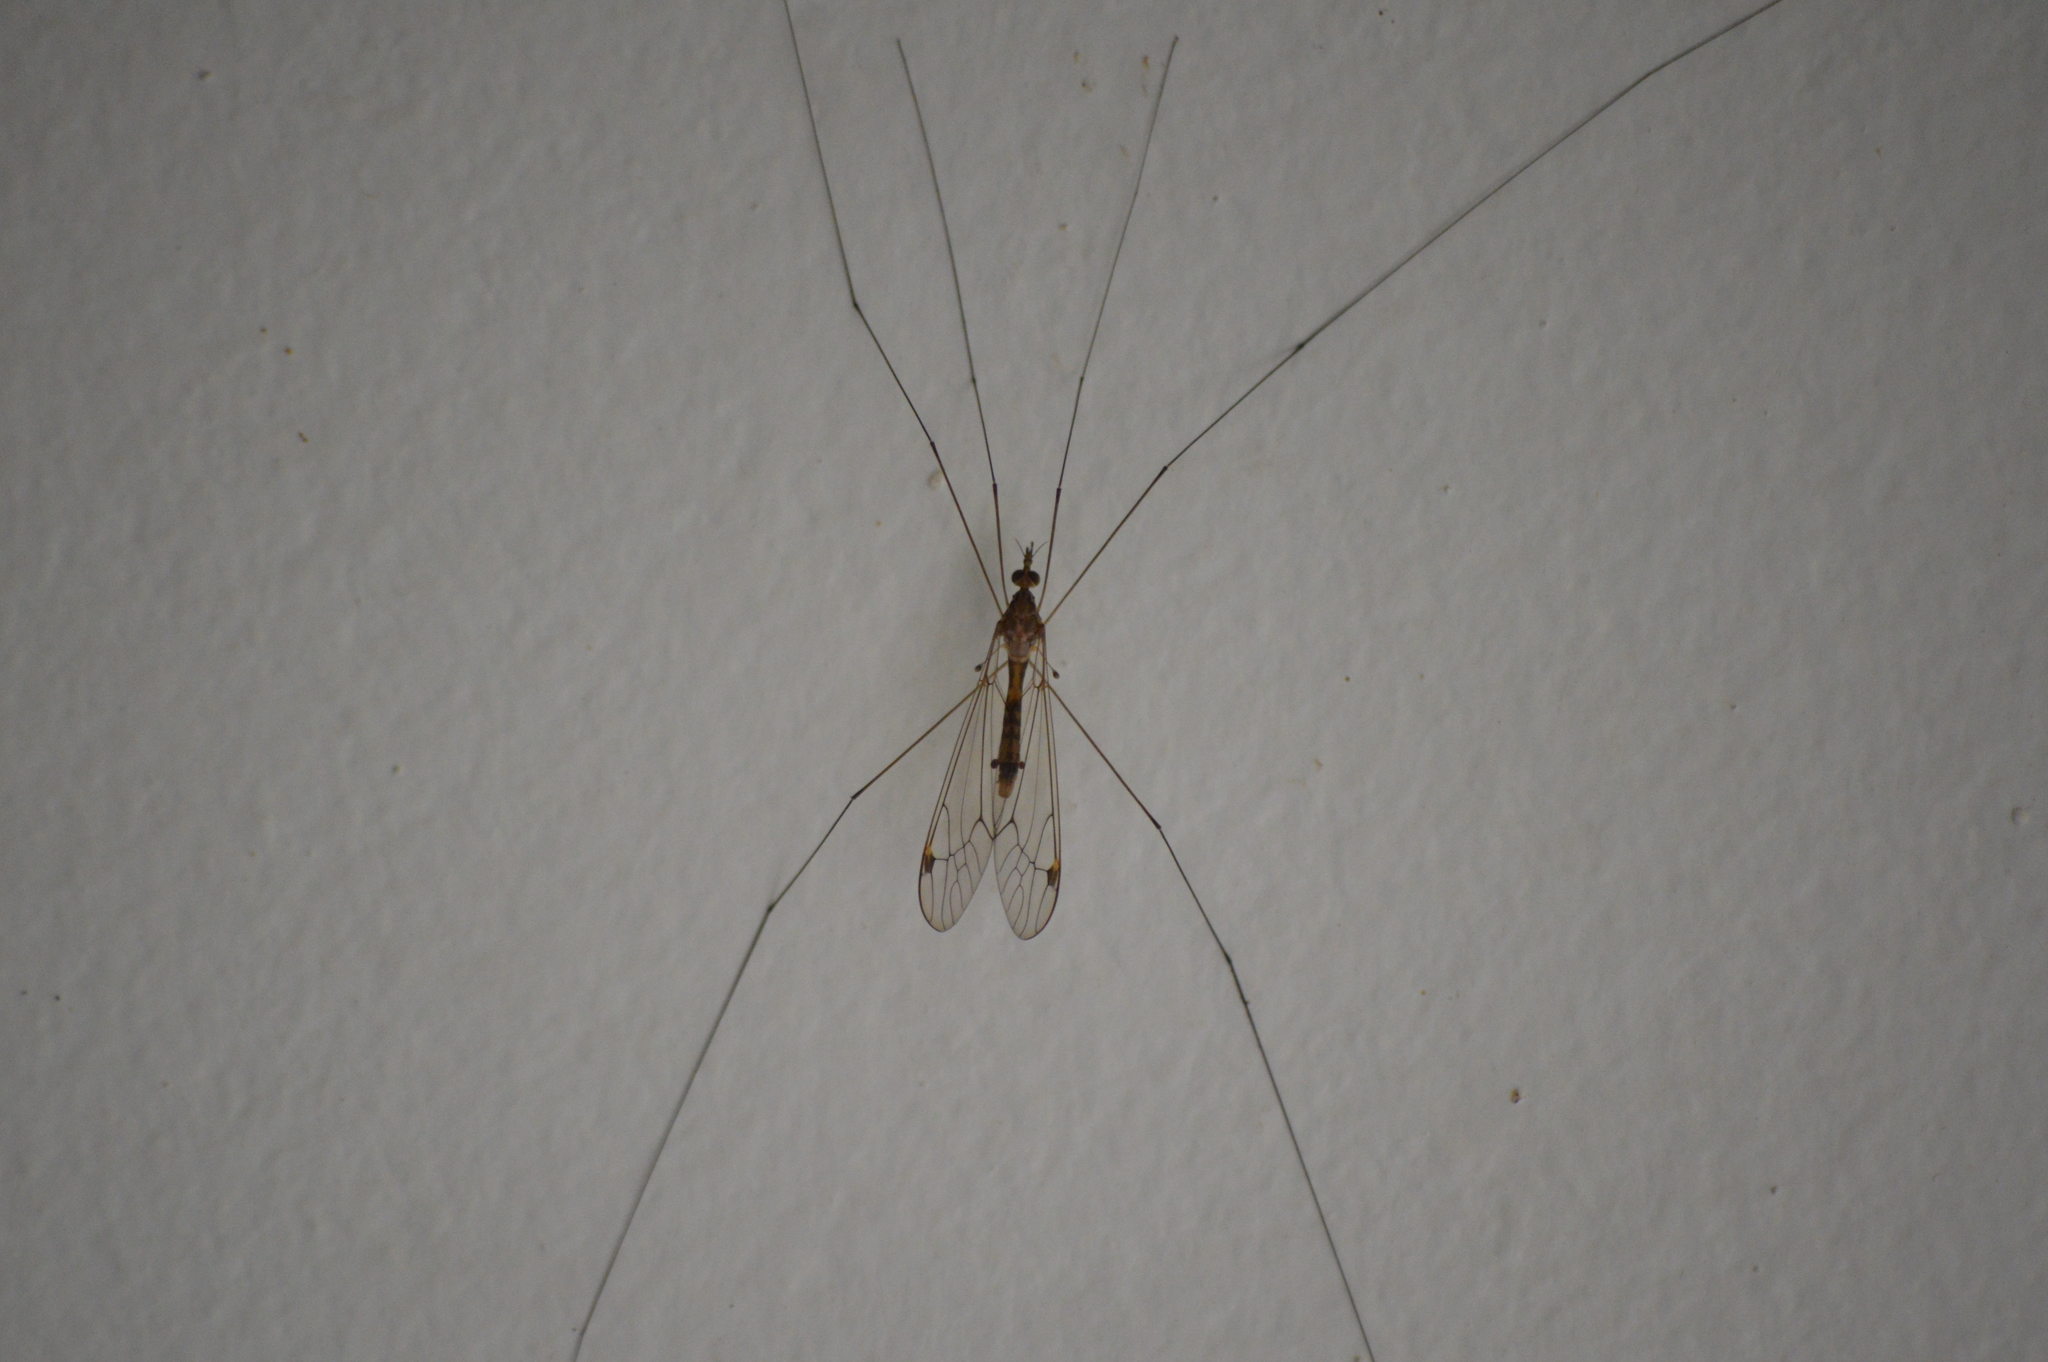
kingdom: Animalia
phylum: Arthropoda
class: Insecta
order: Diptera
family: Tipulidae
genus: Maekistocera
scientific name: Maekistocera longipennis
